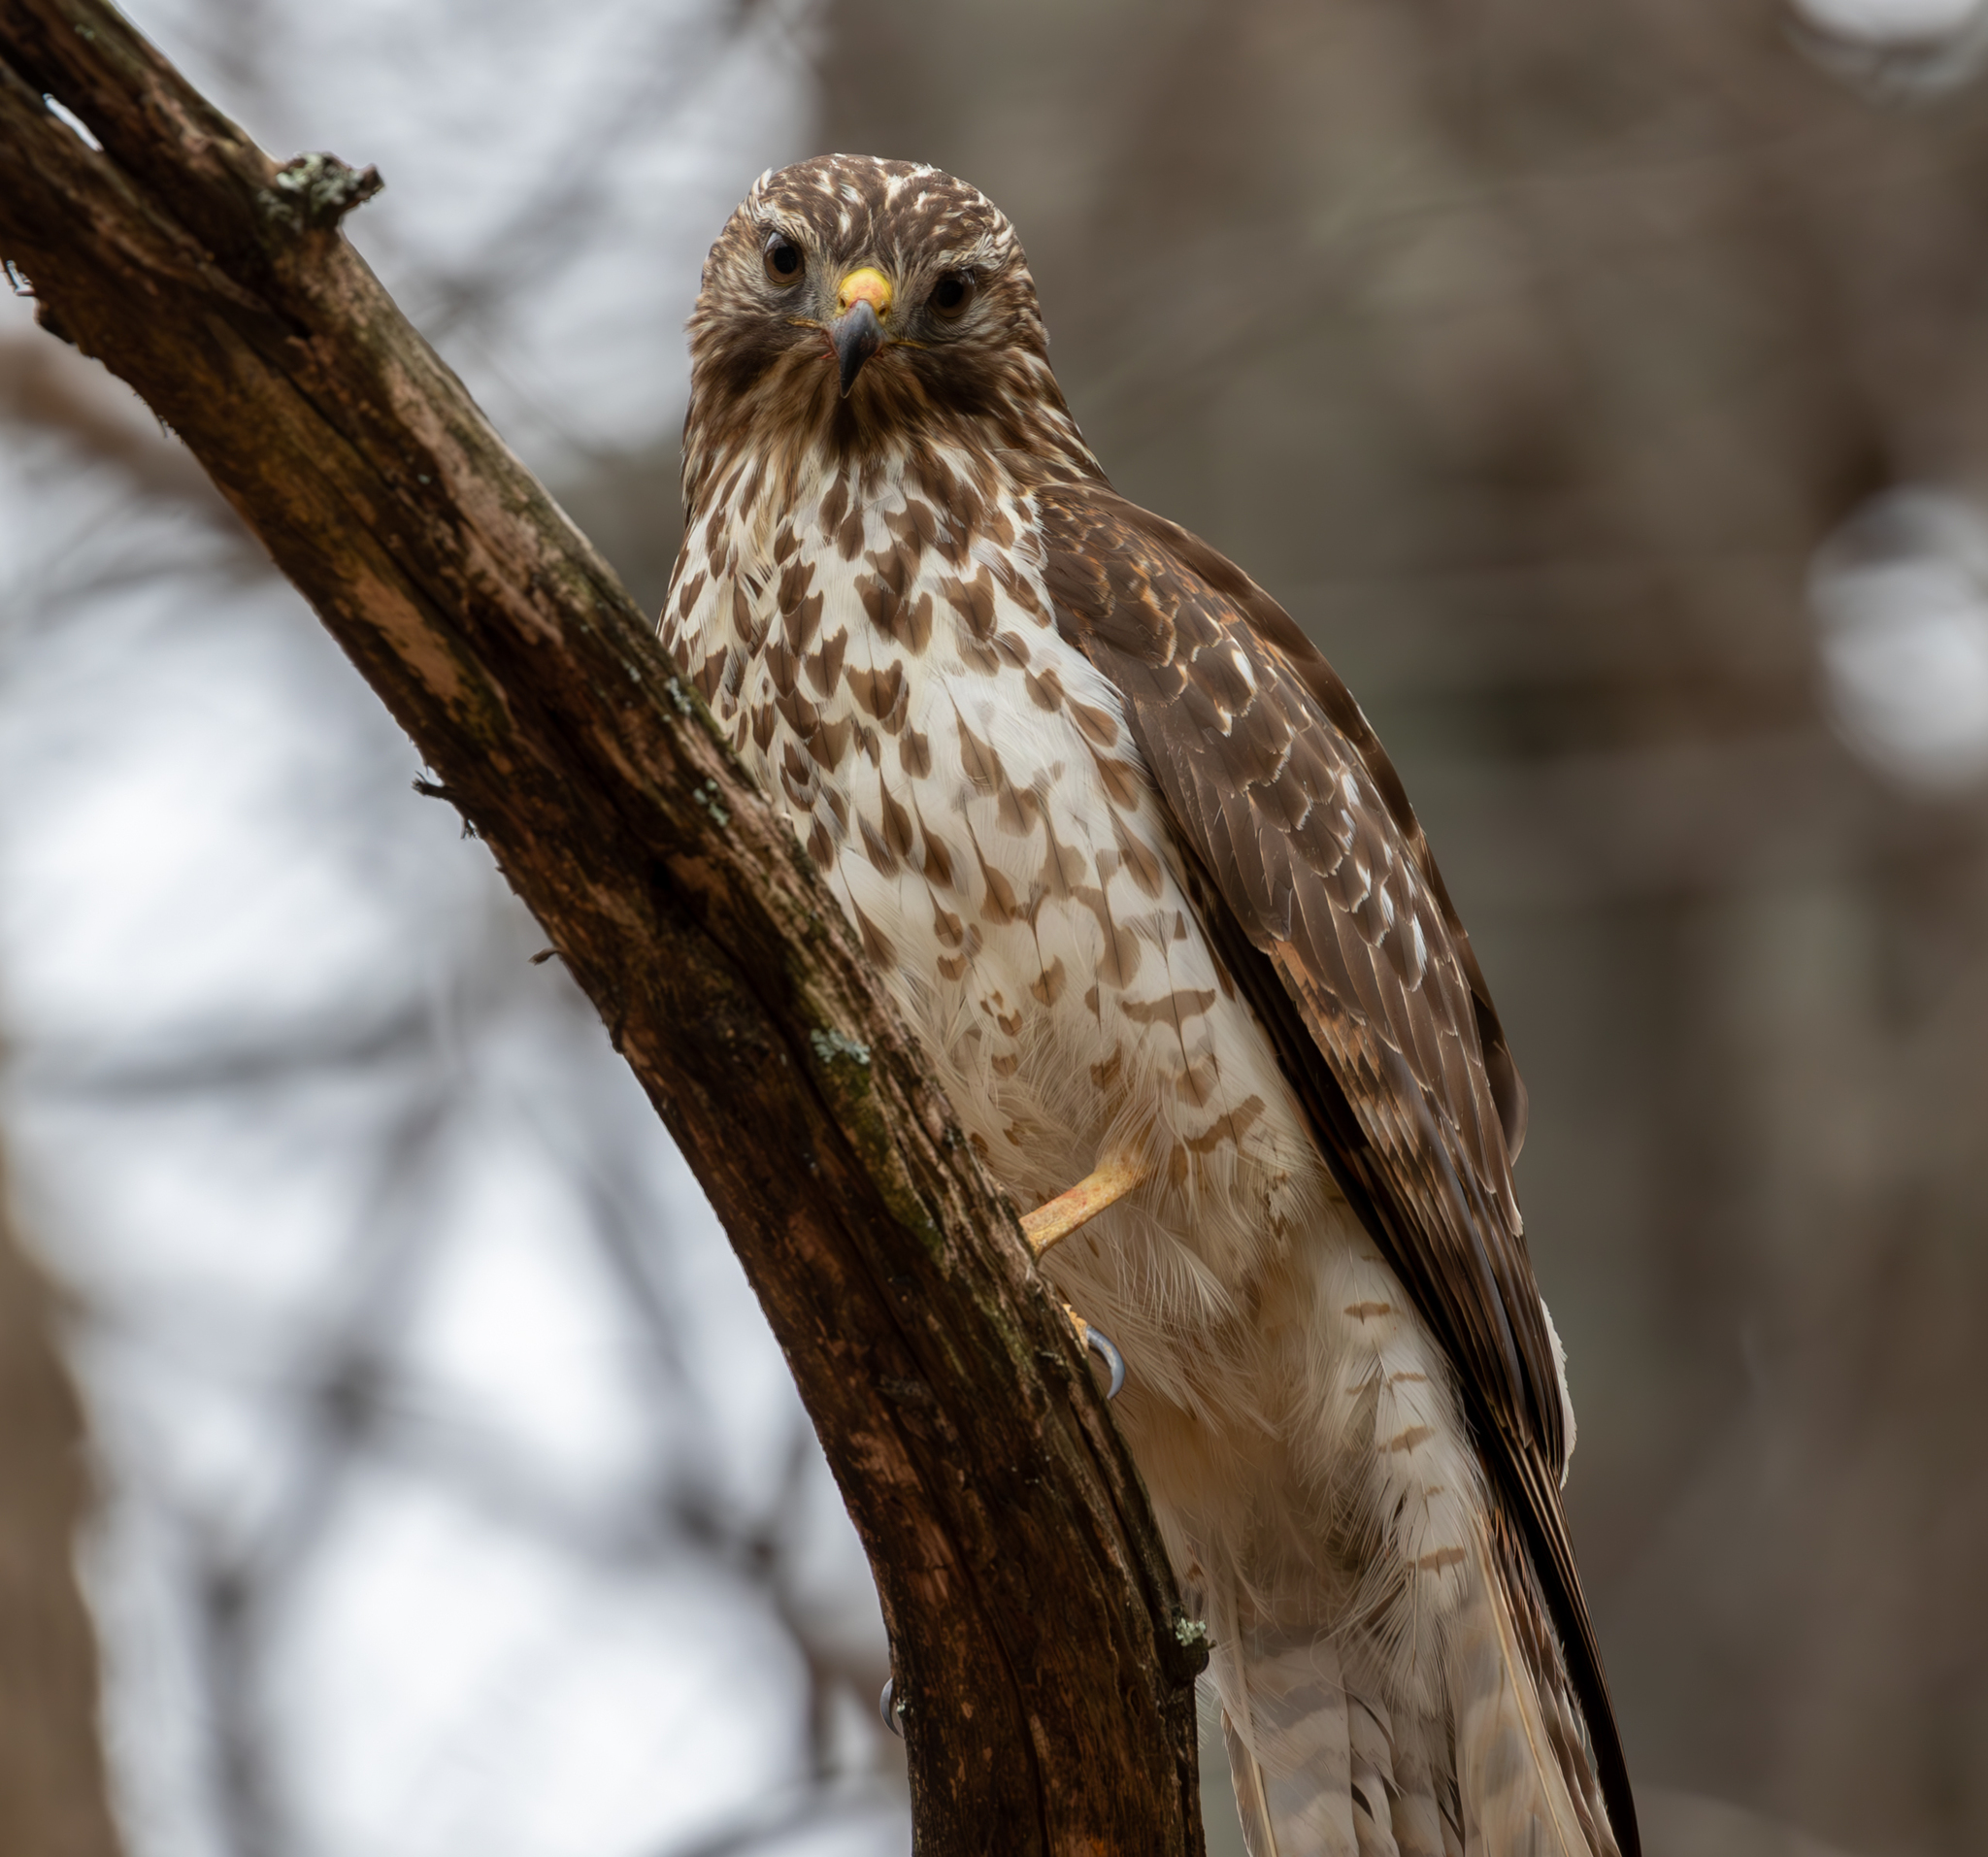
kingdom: Animalia
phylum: Chordata
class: Aves
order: Accipitriformes
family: Accipitridae
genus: Buteo
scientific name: Buteo lineatus
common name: Red-shouldered hawk
